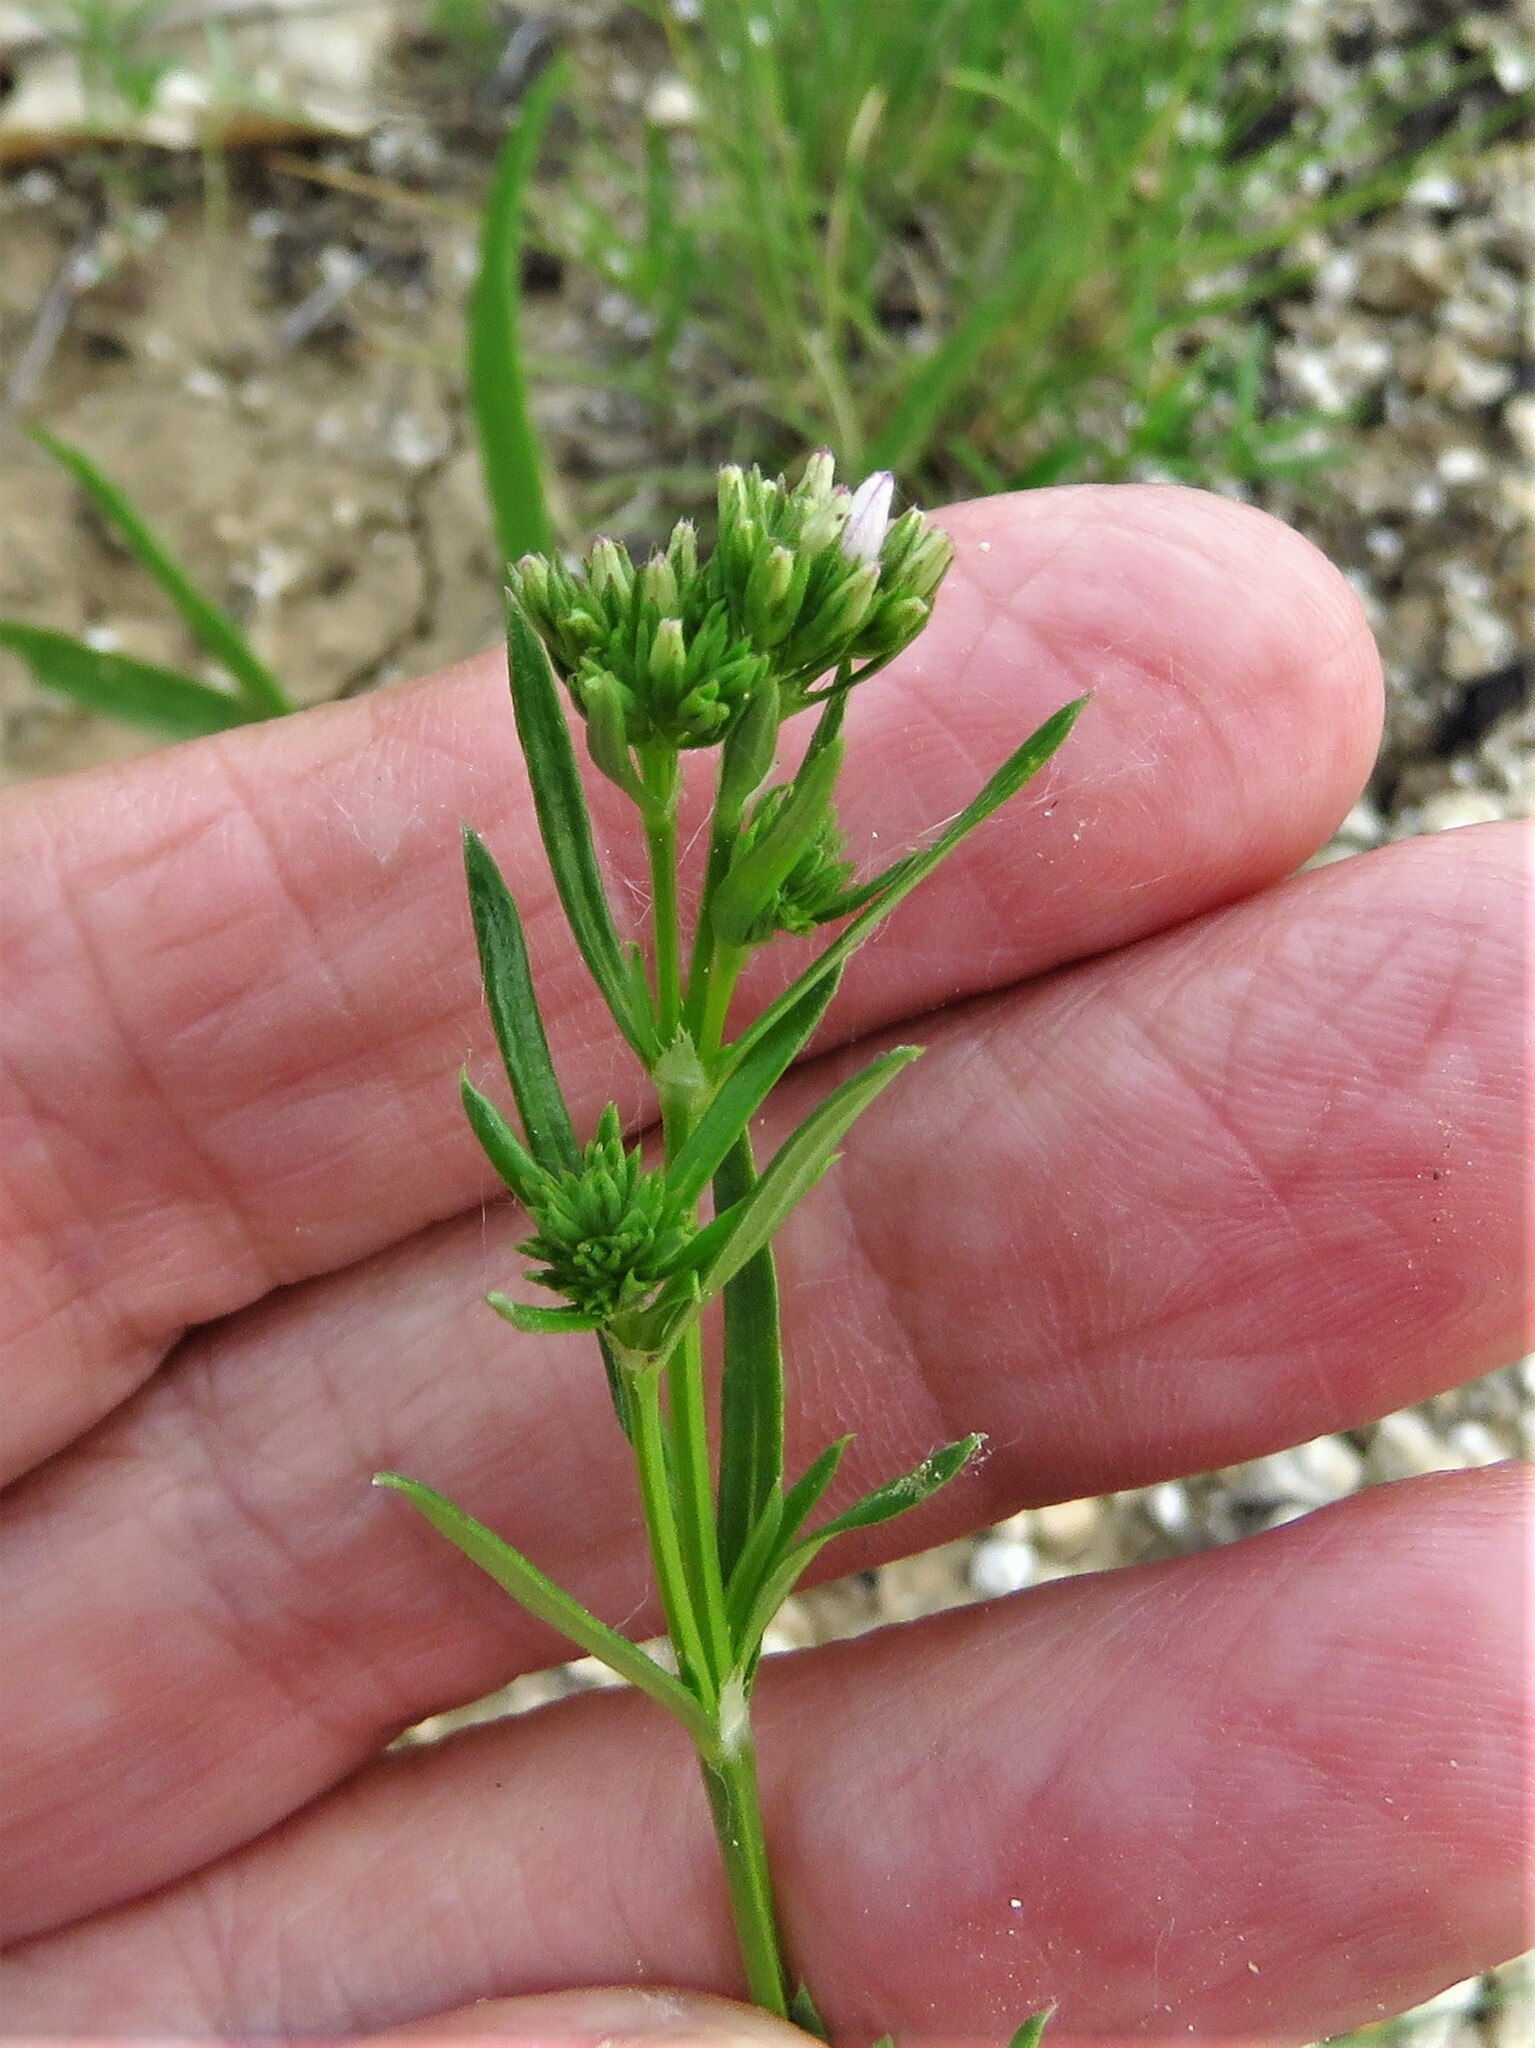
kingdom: Plantae
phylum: Tracheophyta
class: Magnoliopsida
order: Gentianales
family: Rubiaceae
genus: Stenaria
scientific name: Stenaria nigricans
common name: Diamondflowers
